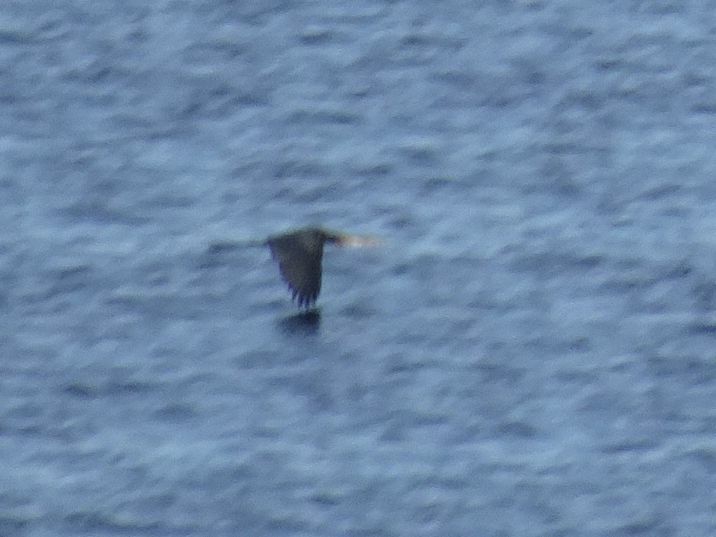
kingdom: Animalia
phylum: Chordata
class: Aves
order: Suliformes
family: Anhingidae
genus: Anhinga
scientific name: Anhinga rufa
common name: African darter
